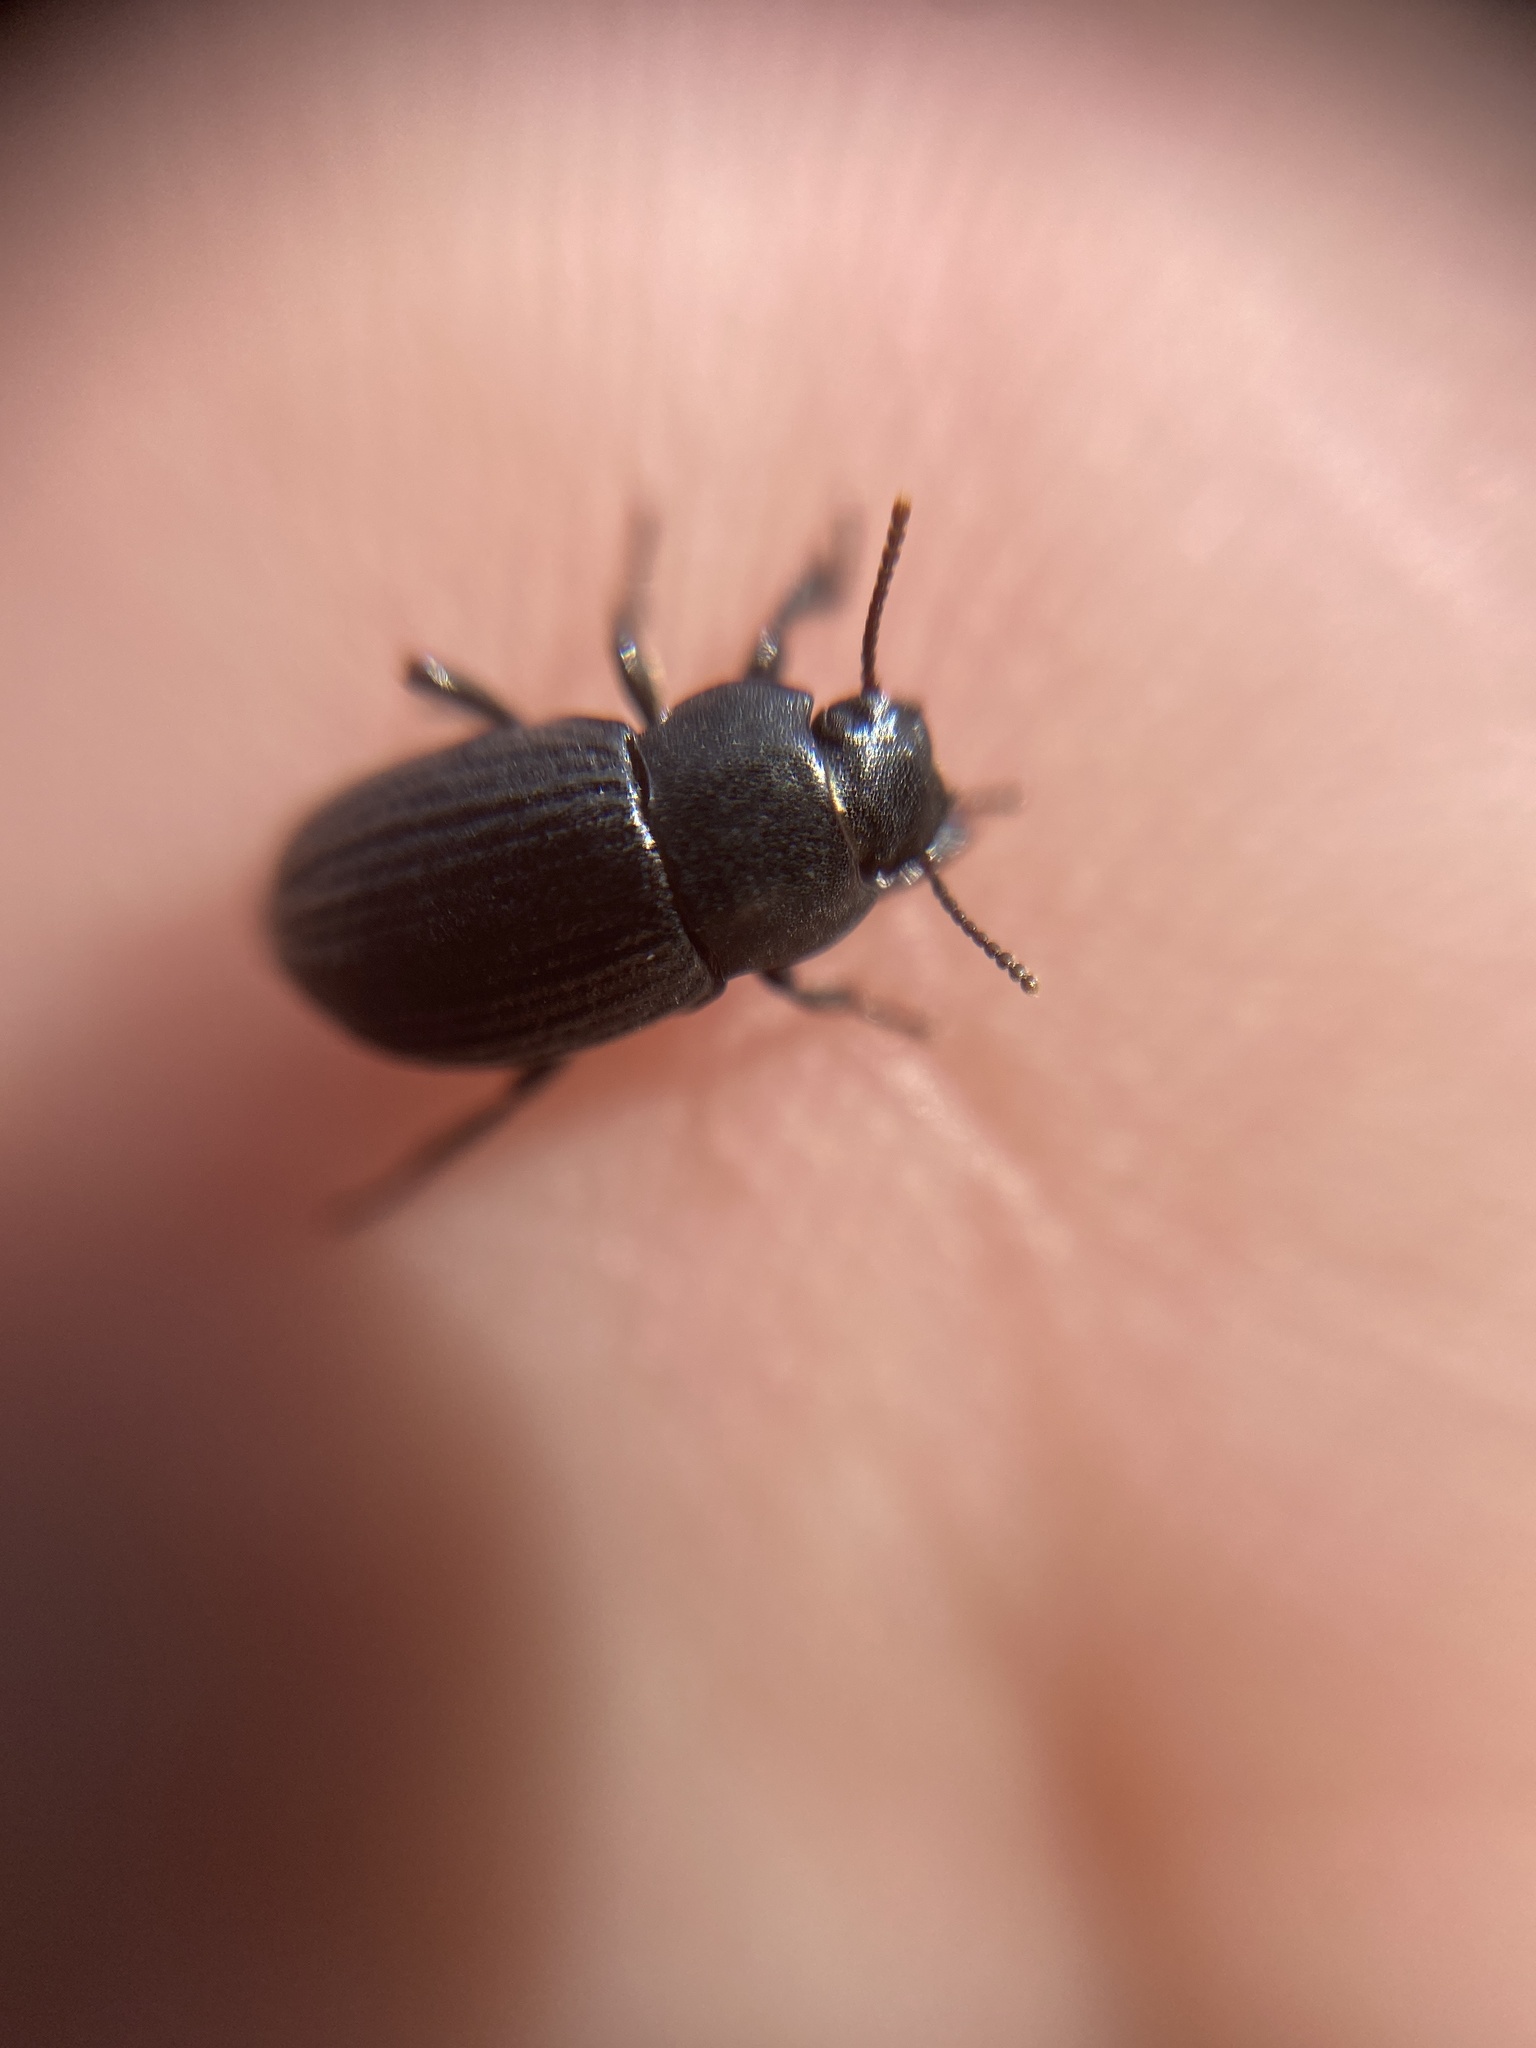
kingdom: Animalia
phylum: Arthropoda
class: Insecta
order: Coleoptera
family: Tenebrionidae
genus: Phylan
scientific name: Phylan gibbus
